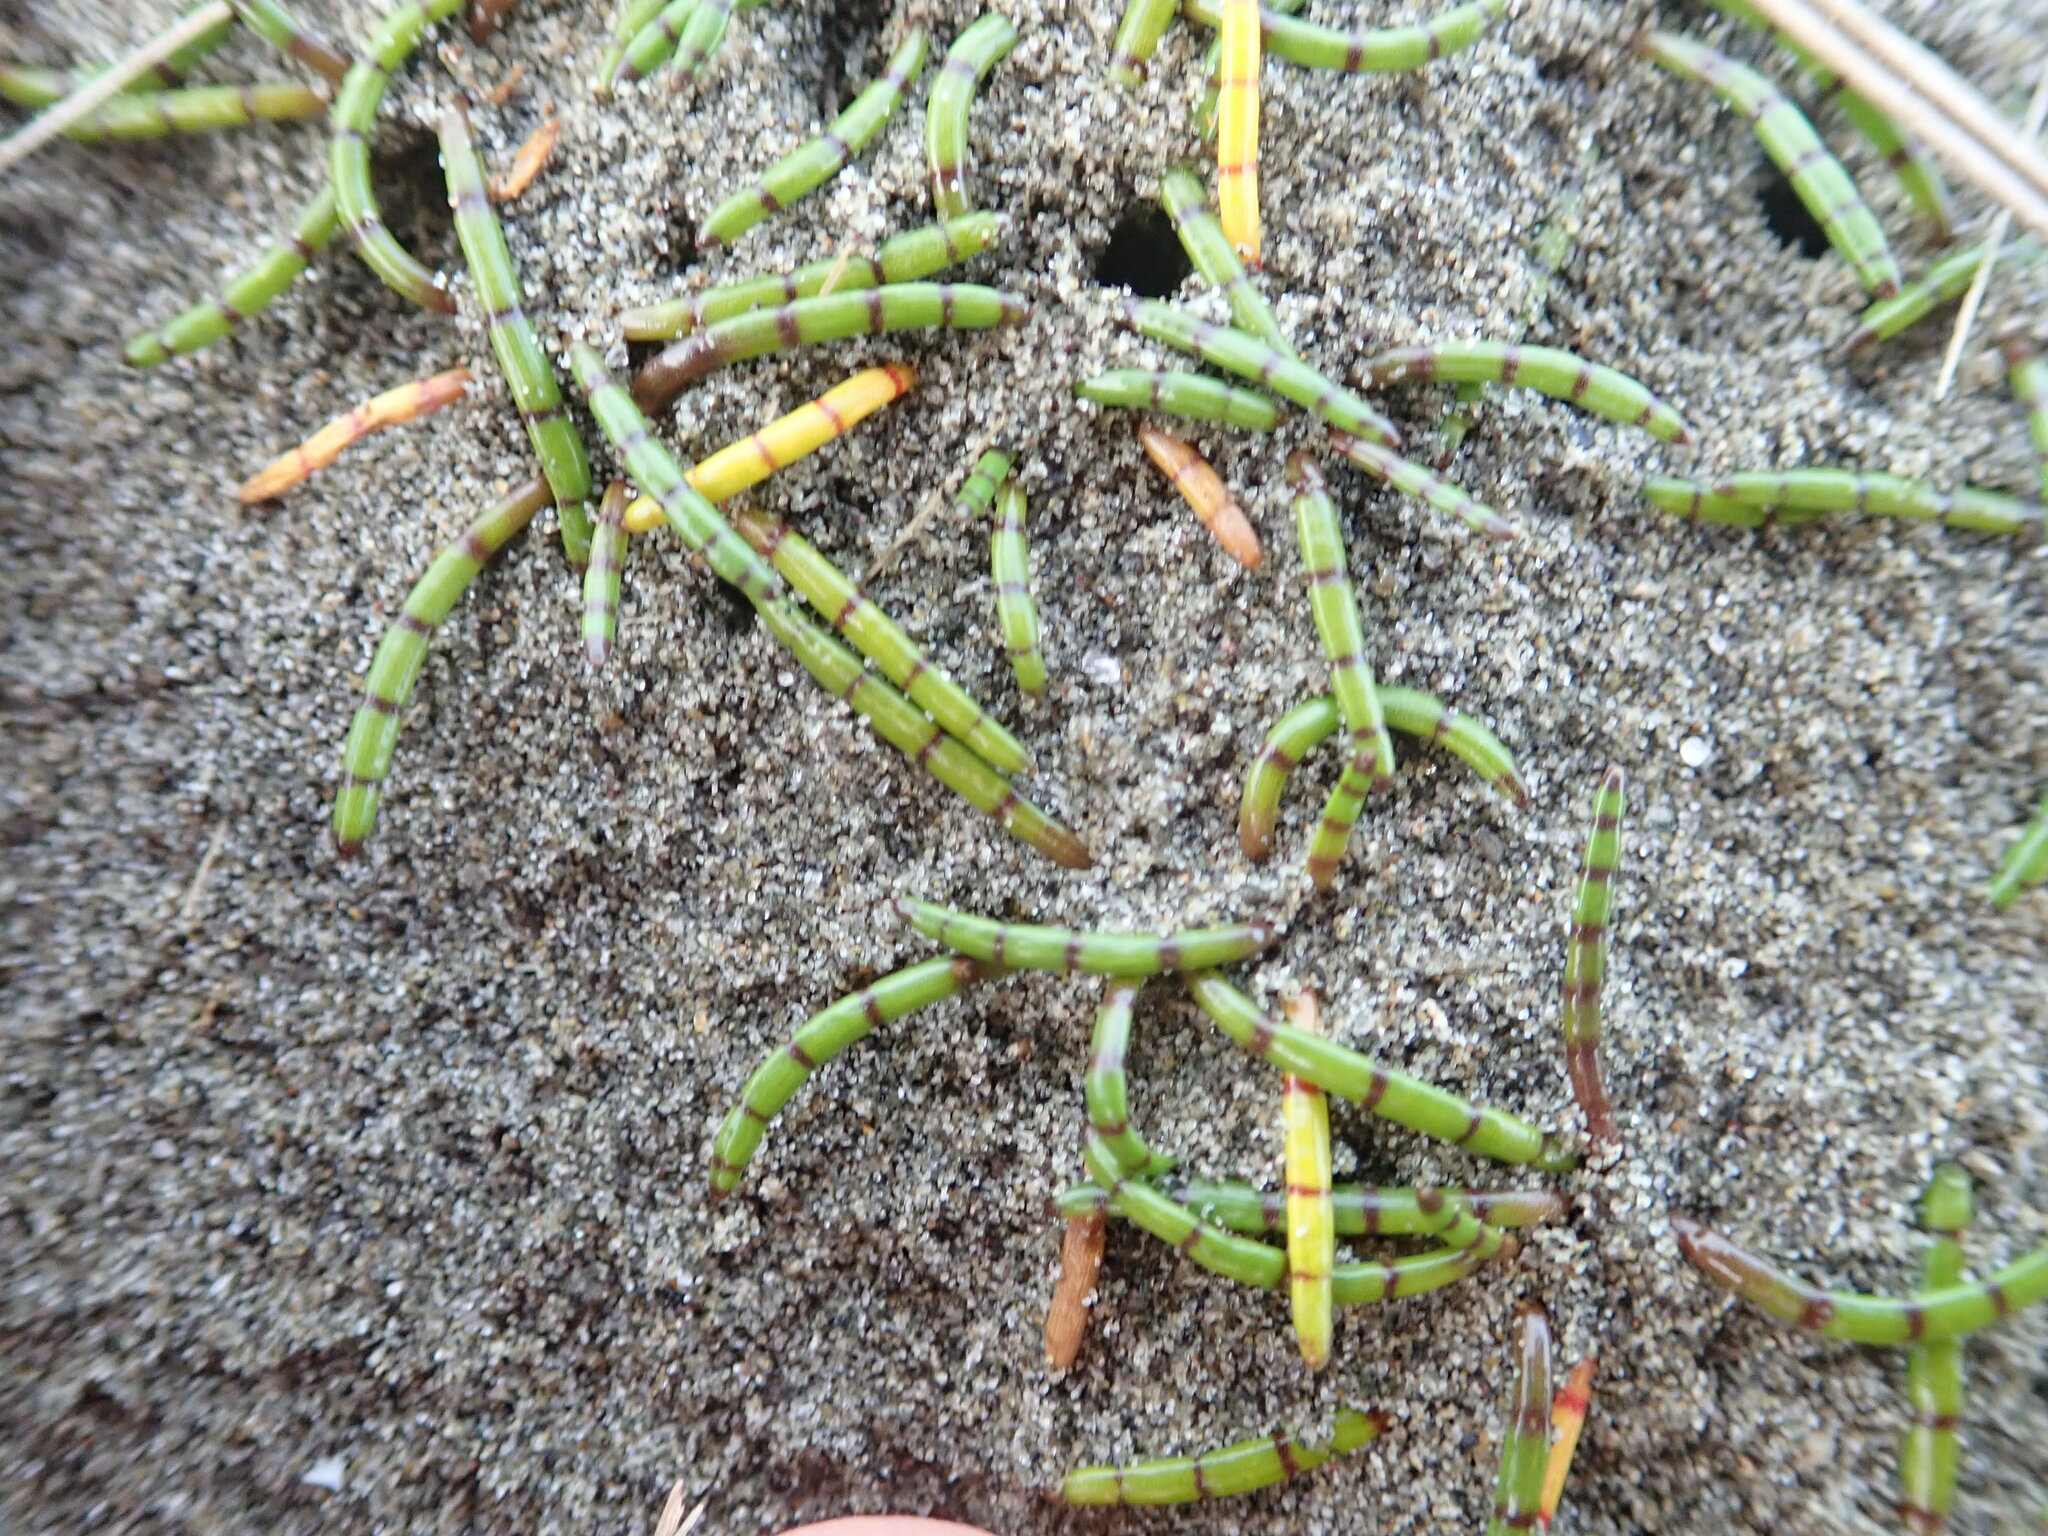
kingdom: Plantae
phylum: Tracheophyta
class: Magnoliopsida
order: Apiales
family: Apiaceae
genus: Lilaeopsis
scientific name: Lilaeopsis novae-zelandiae
